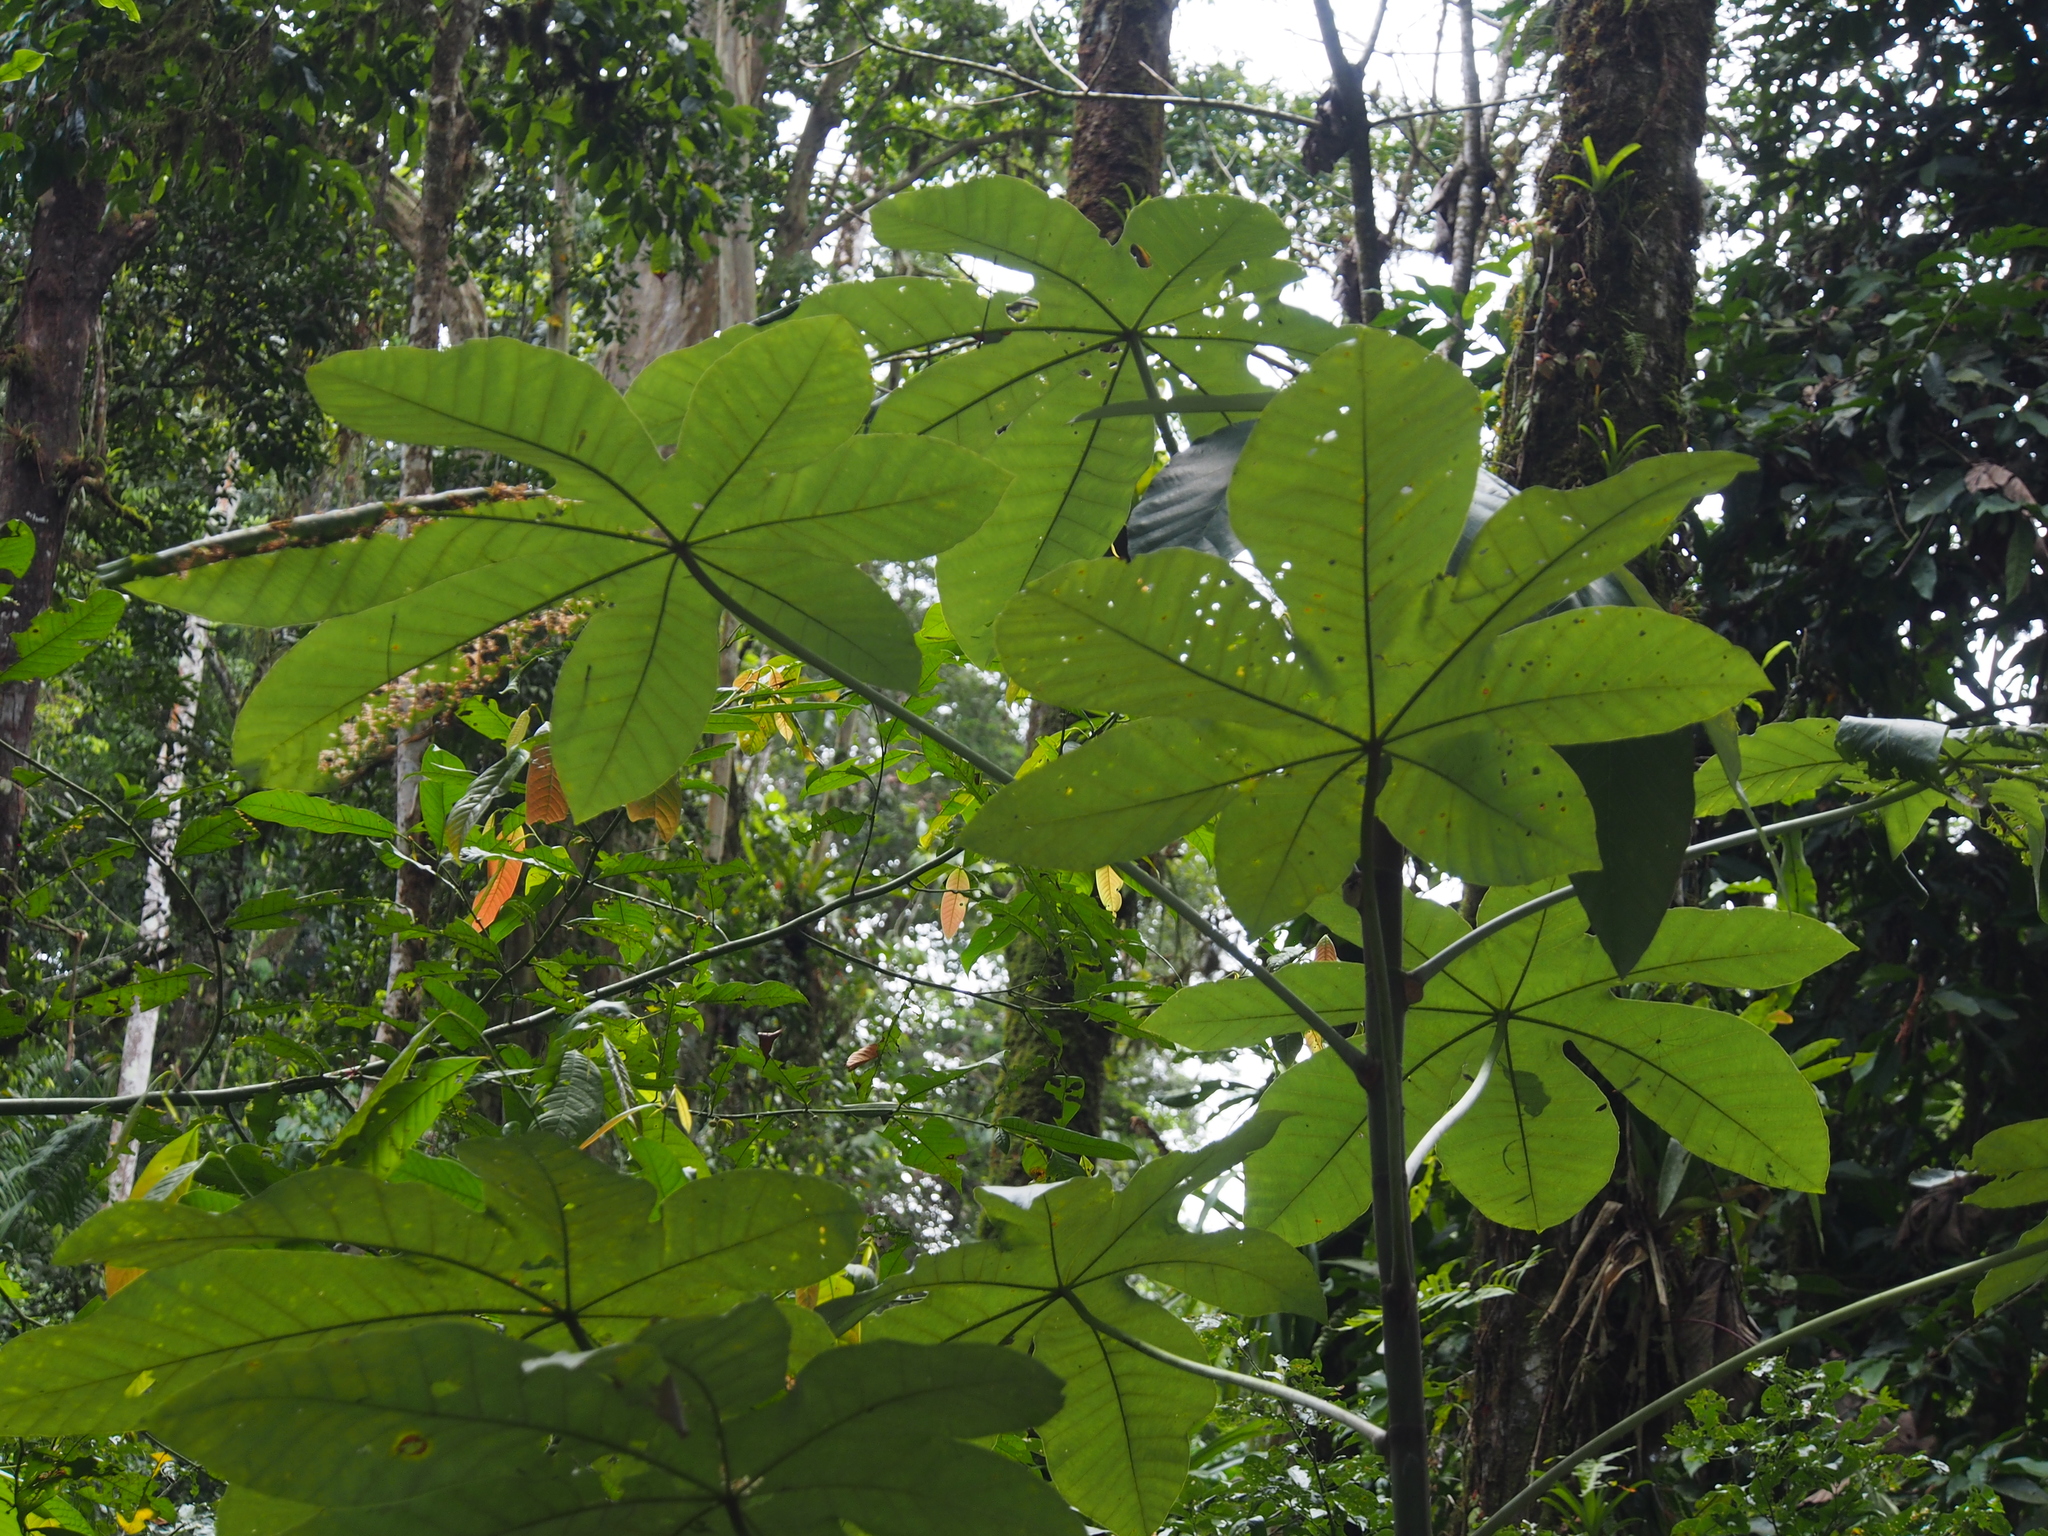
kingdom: Plantae
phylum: Tracheophyta
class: Magnoliopsida
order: Rosales
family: Urticaceae
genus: Cecropia
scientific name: Cecropia insignis
